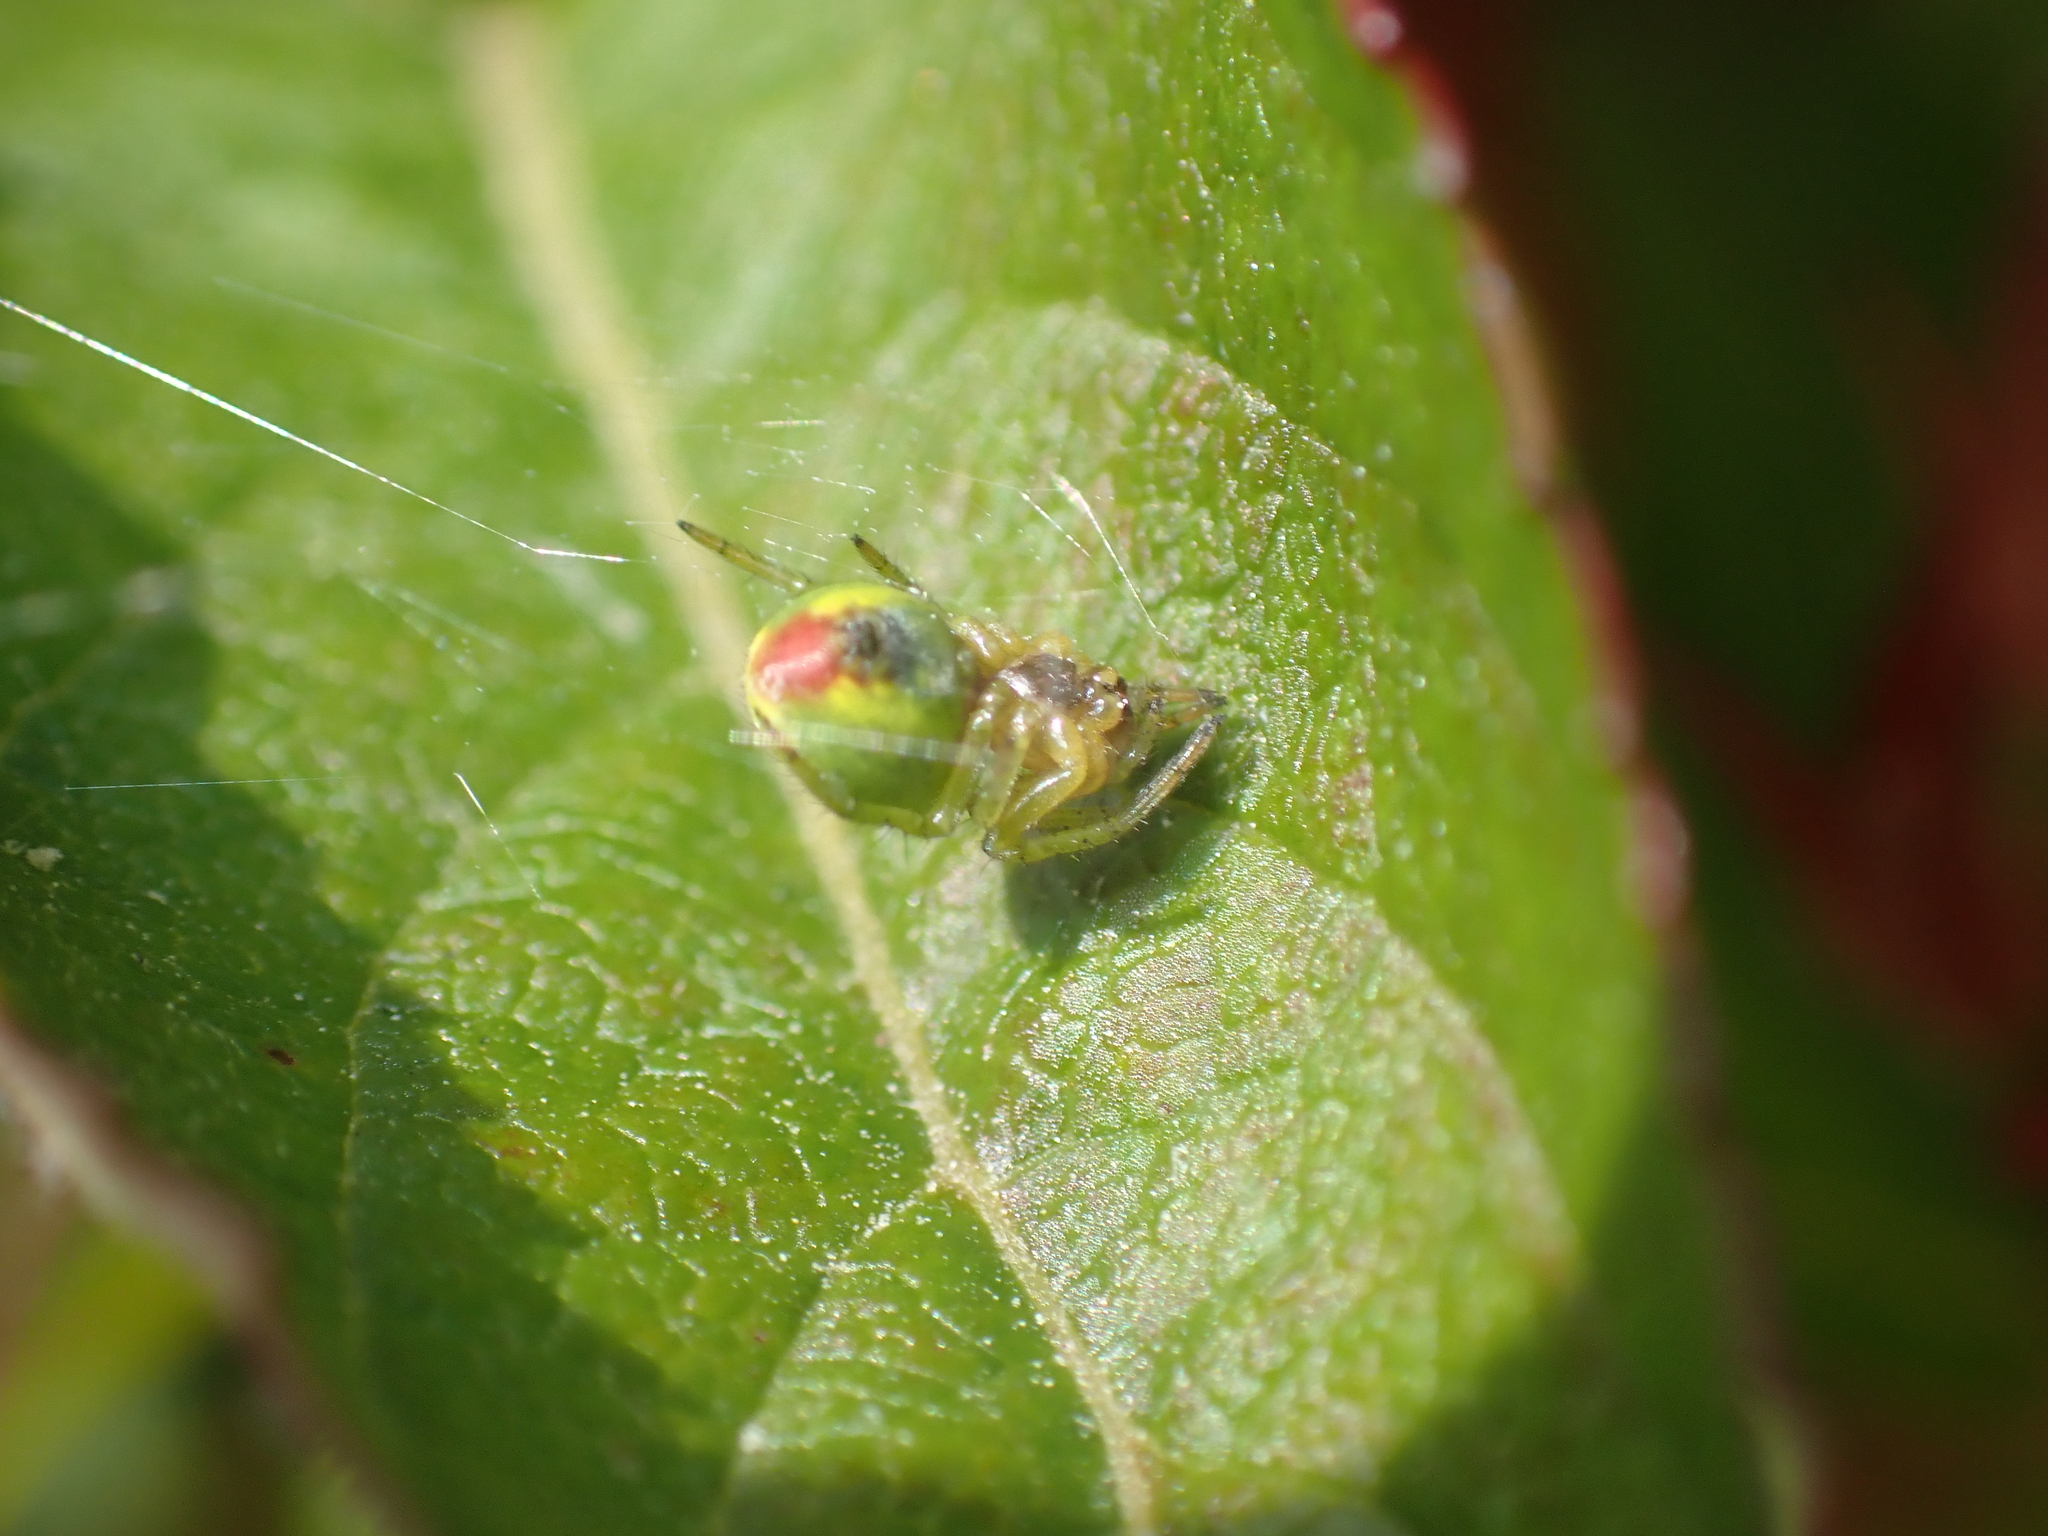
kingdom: Animalia
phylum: Arthropoda
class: Arachnida
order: Araneae
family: Araneidae
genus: Araniella
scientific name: Araniella
